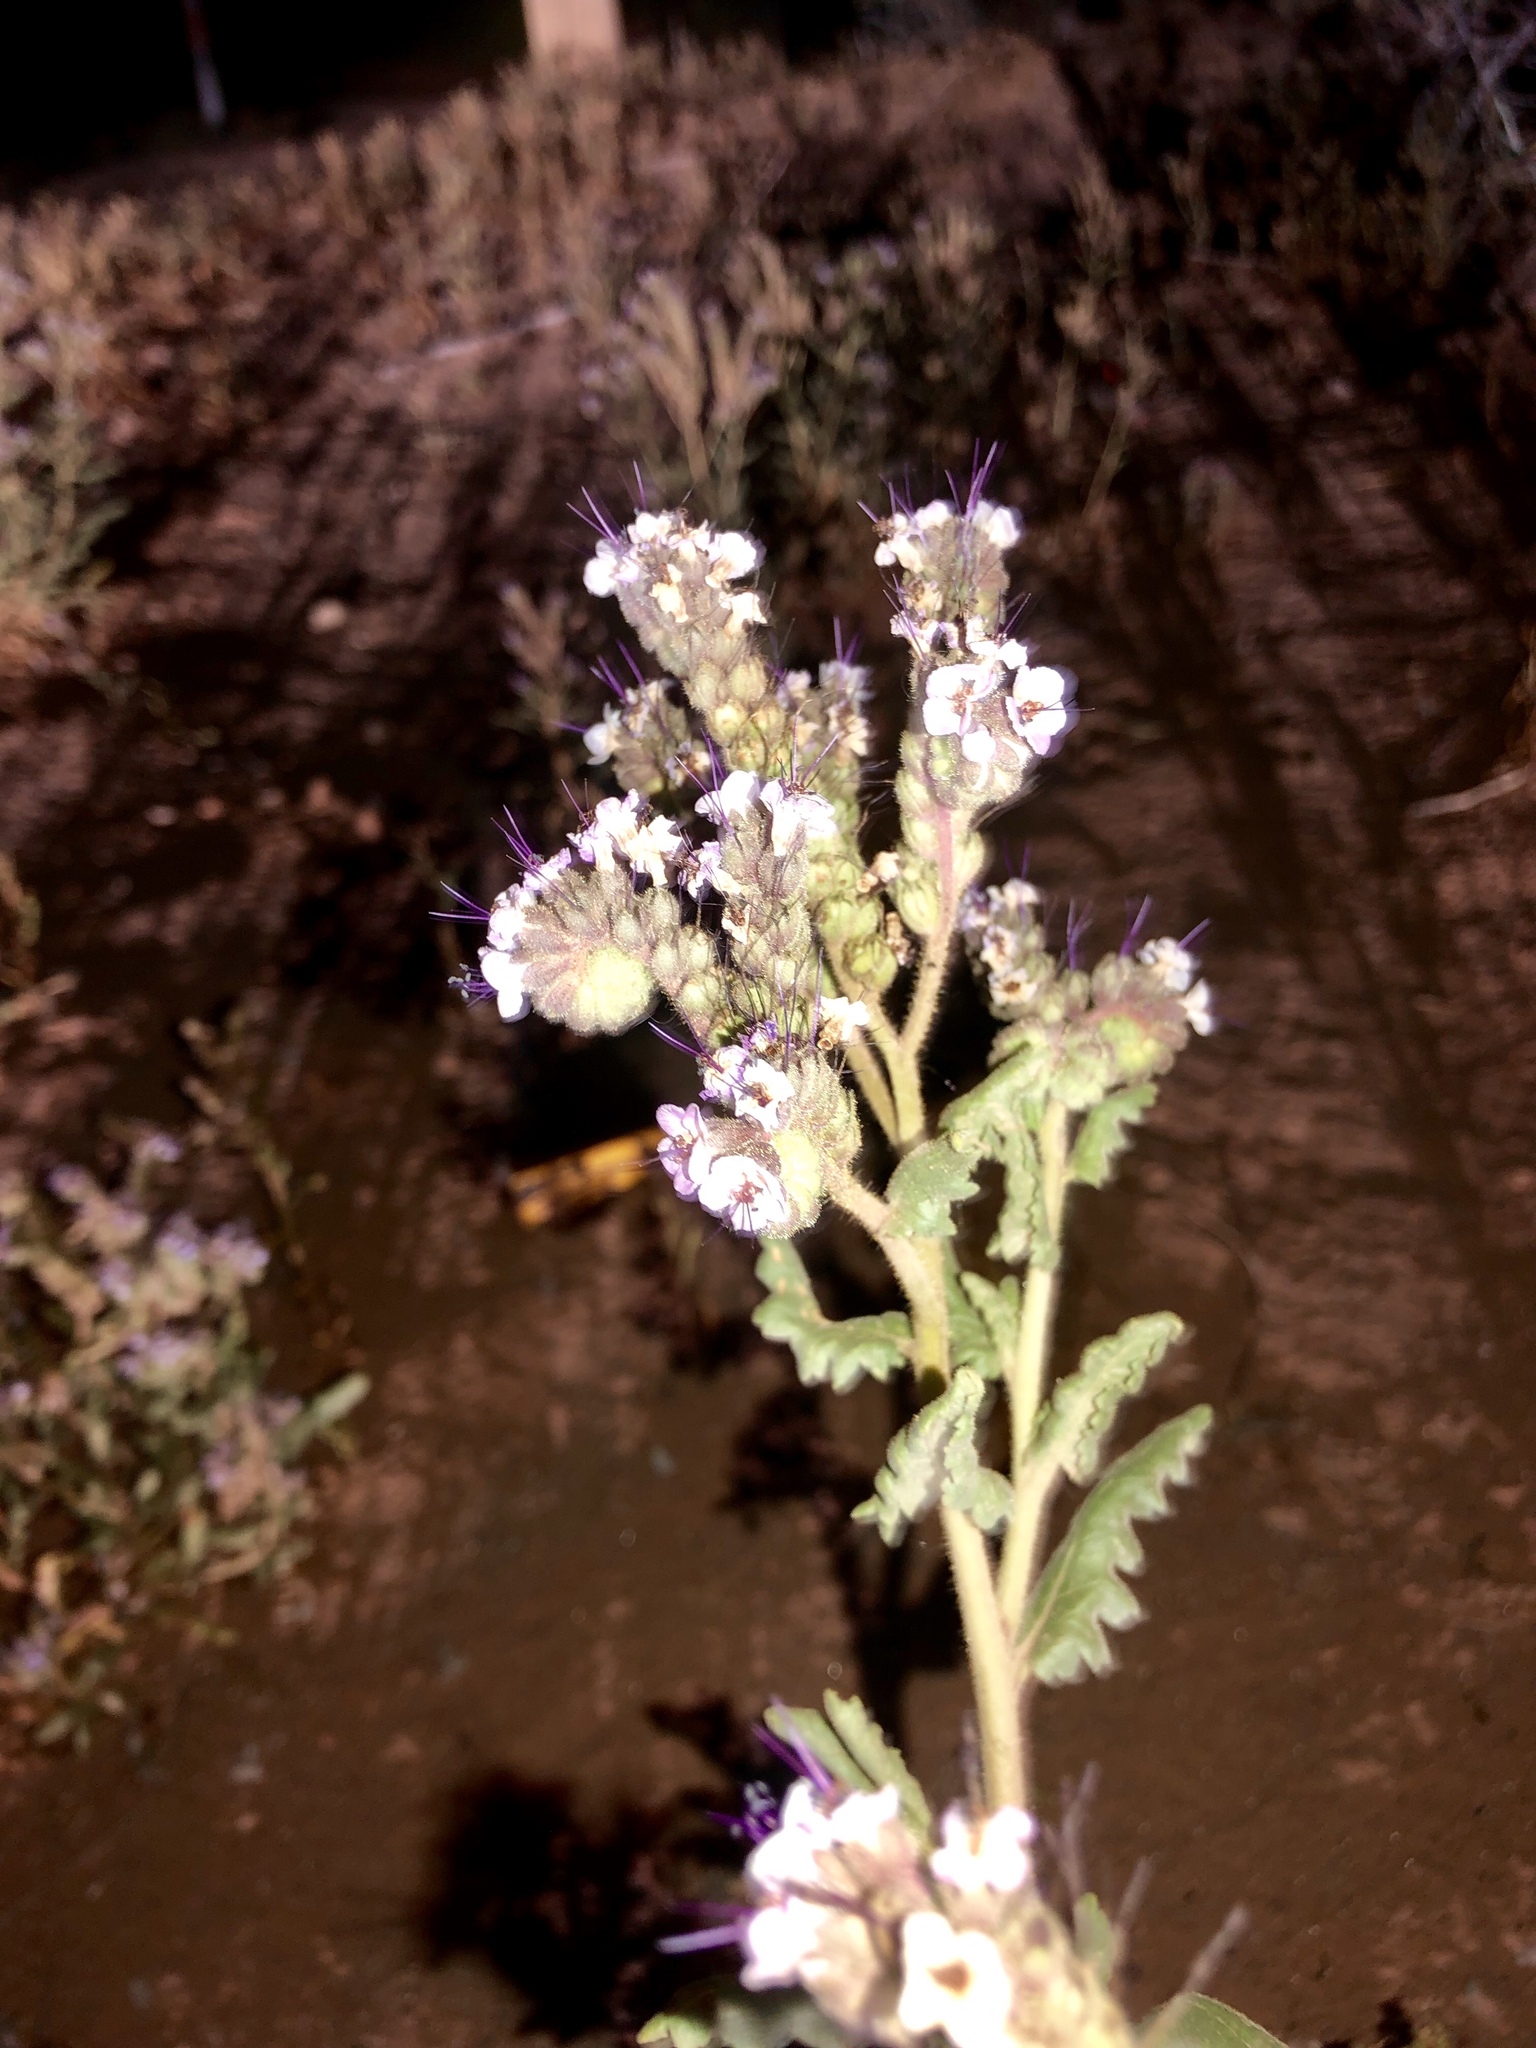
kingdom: Plantae
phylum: Tracheophyta
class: Magnoliopsida
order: Boraginales
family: Hydrophyllaceae
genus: Phacelia
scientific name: Phacelia integrifolia
